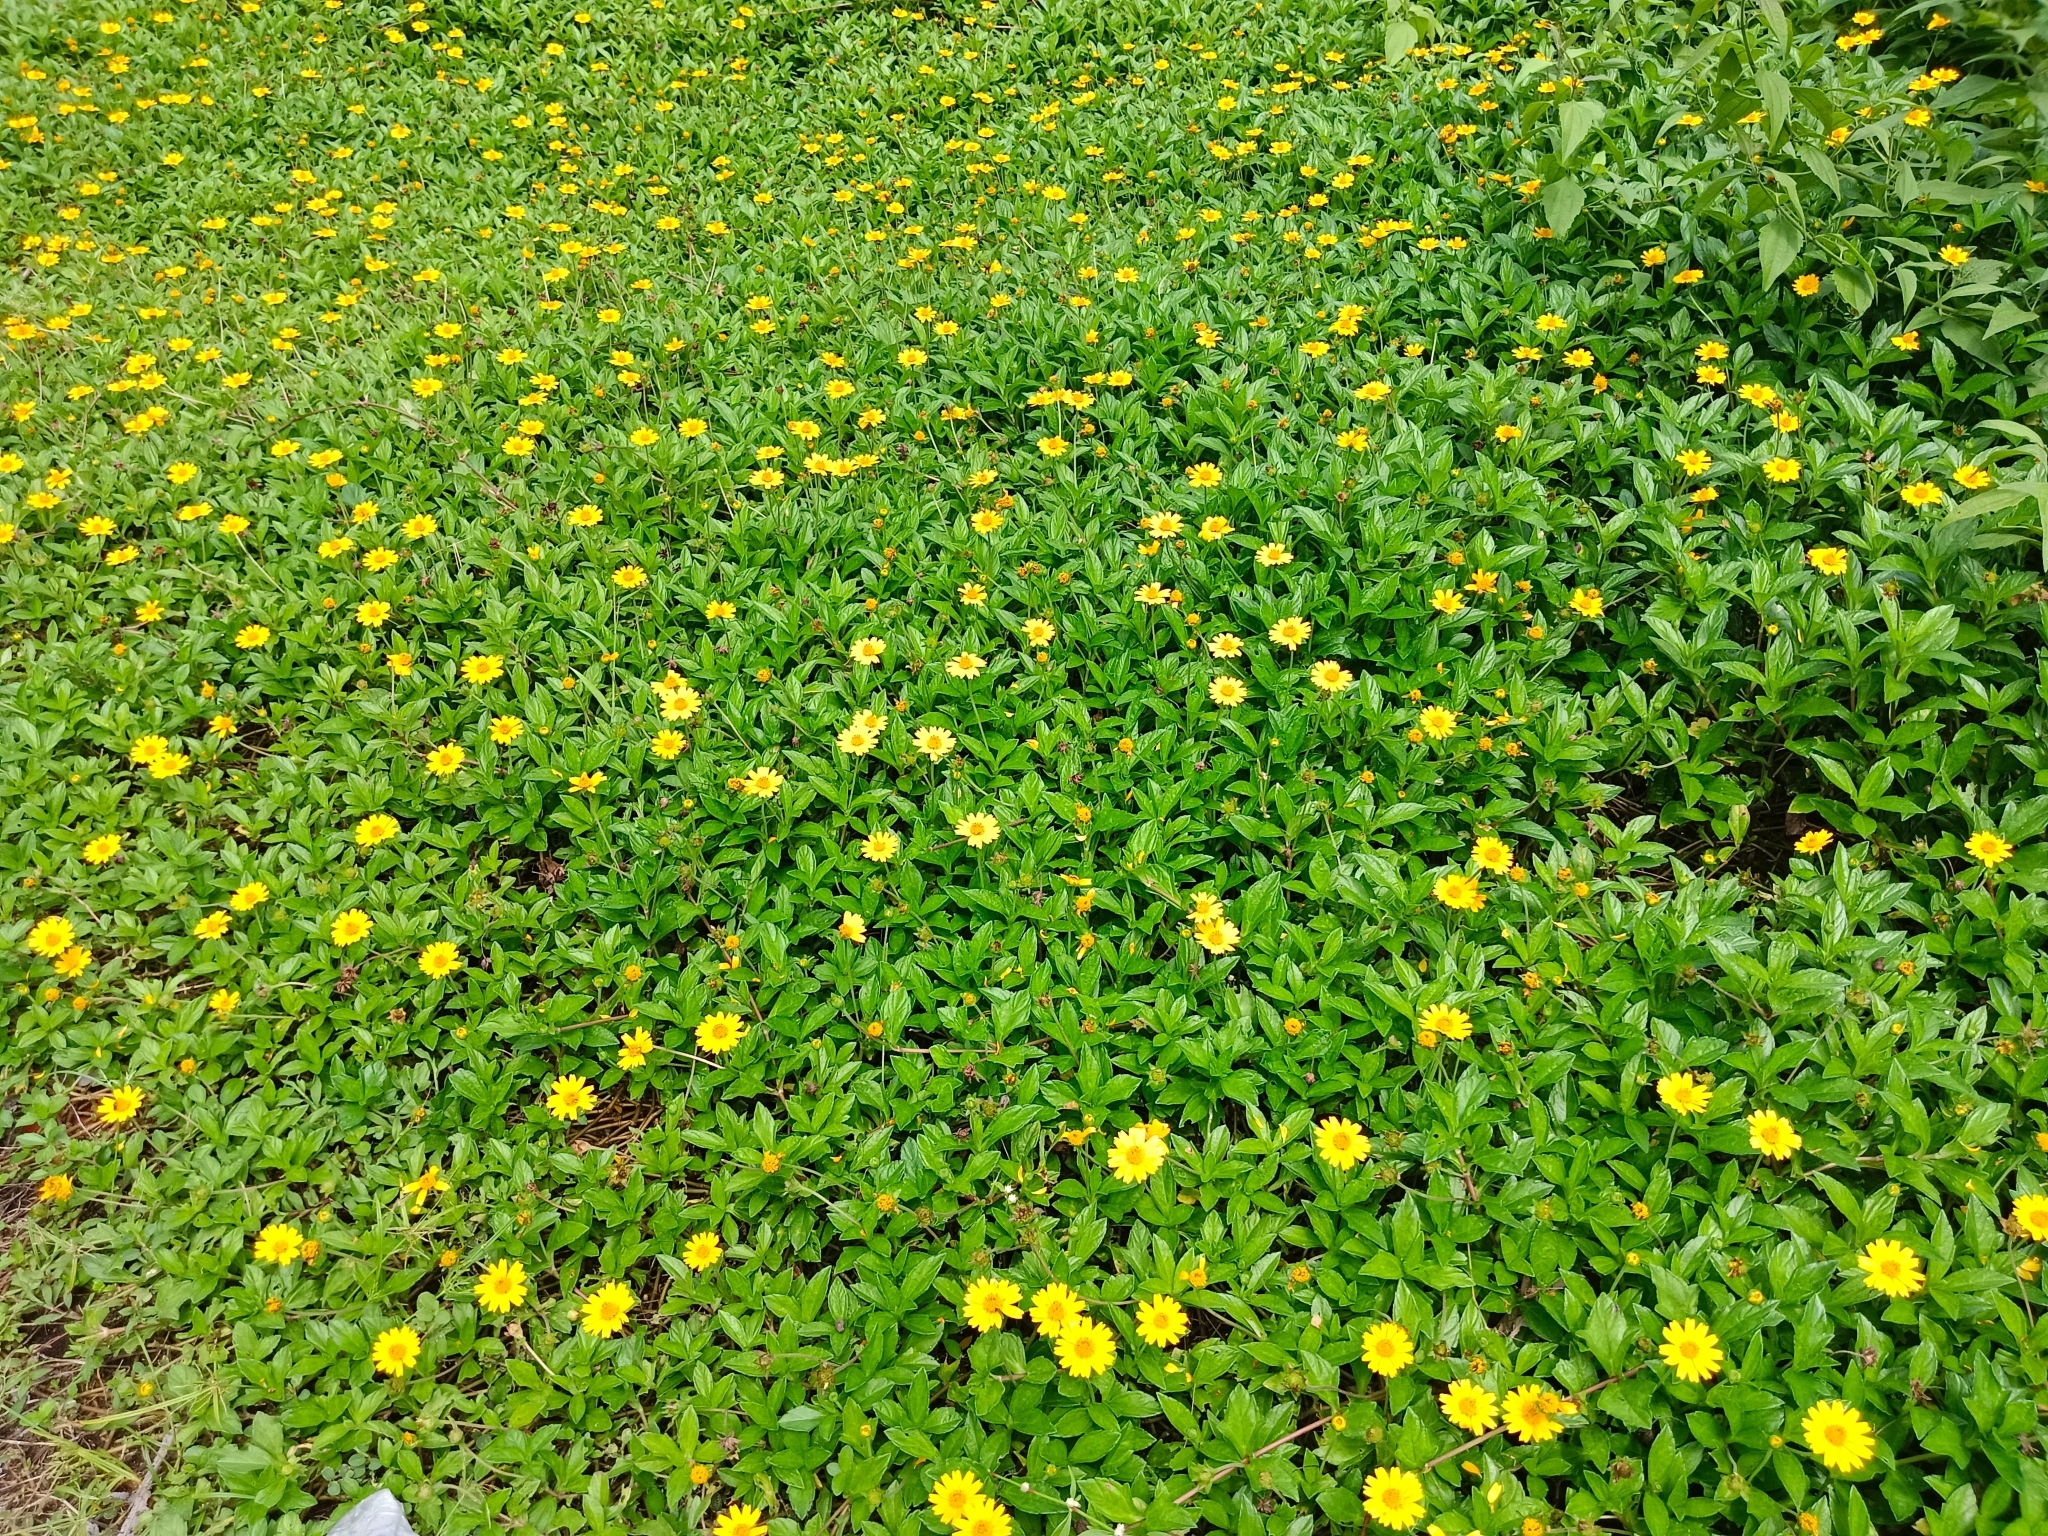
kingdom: Plantae
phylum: Tracheophyta
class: Magnoliopsida
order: Asterales
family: Asteraceae
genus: Sphagneticola
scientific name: Sphagneticola trilobata
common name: Bay biscayne creeping-oxeye
